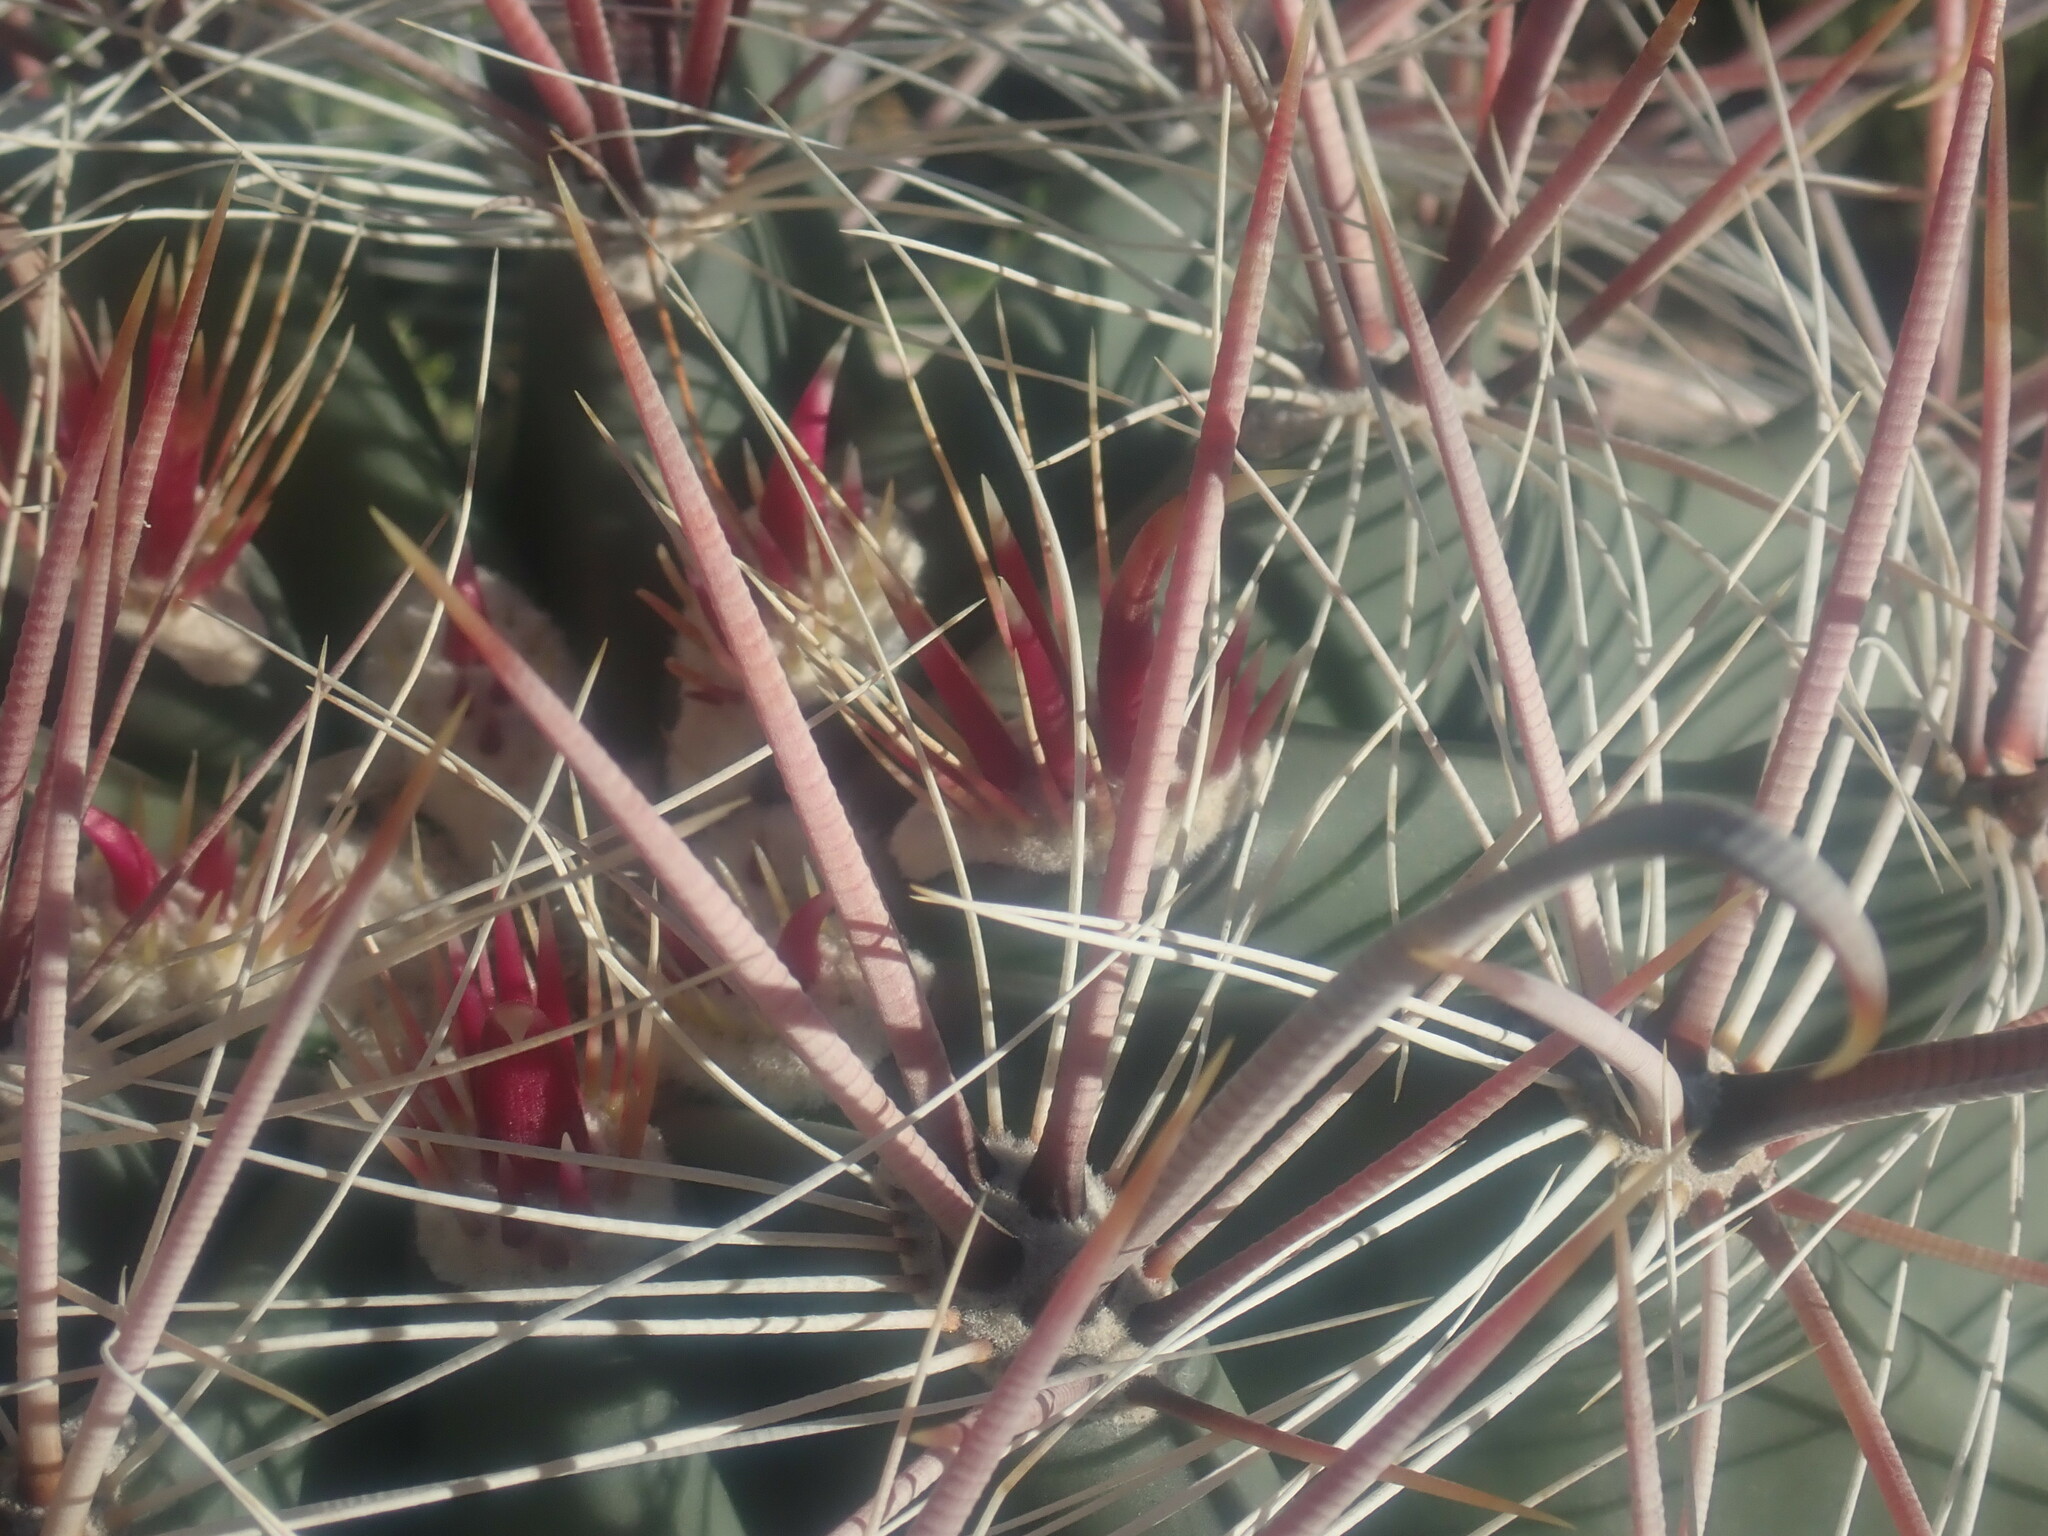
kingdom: Plantae
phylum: Tracheophyta
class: Magnoliopsida
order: Caryophyllales
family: Cactaceae
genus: Ferocactus
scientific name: Ferocactus wislizeni
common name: Candy barrel cactus
